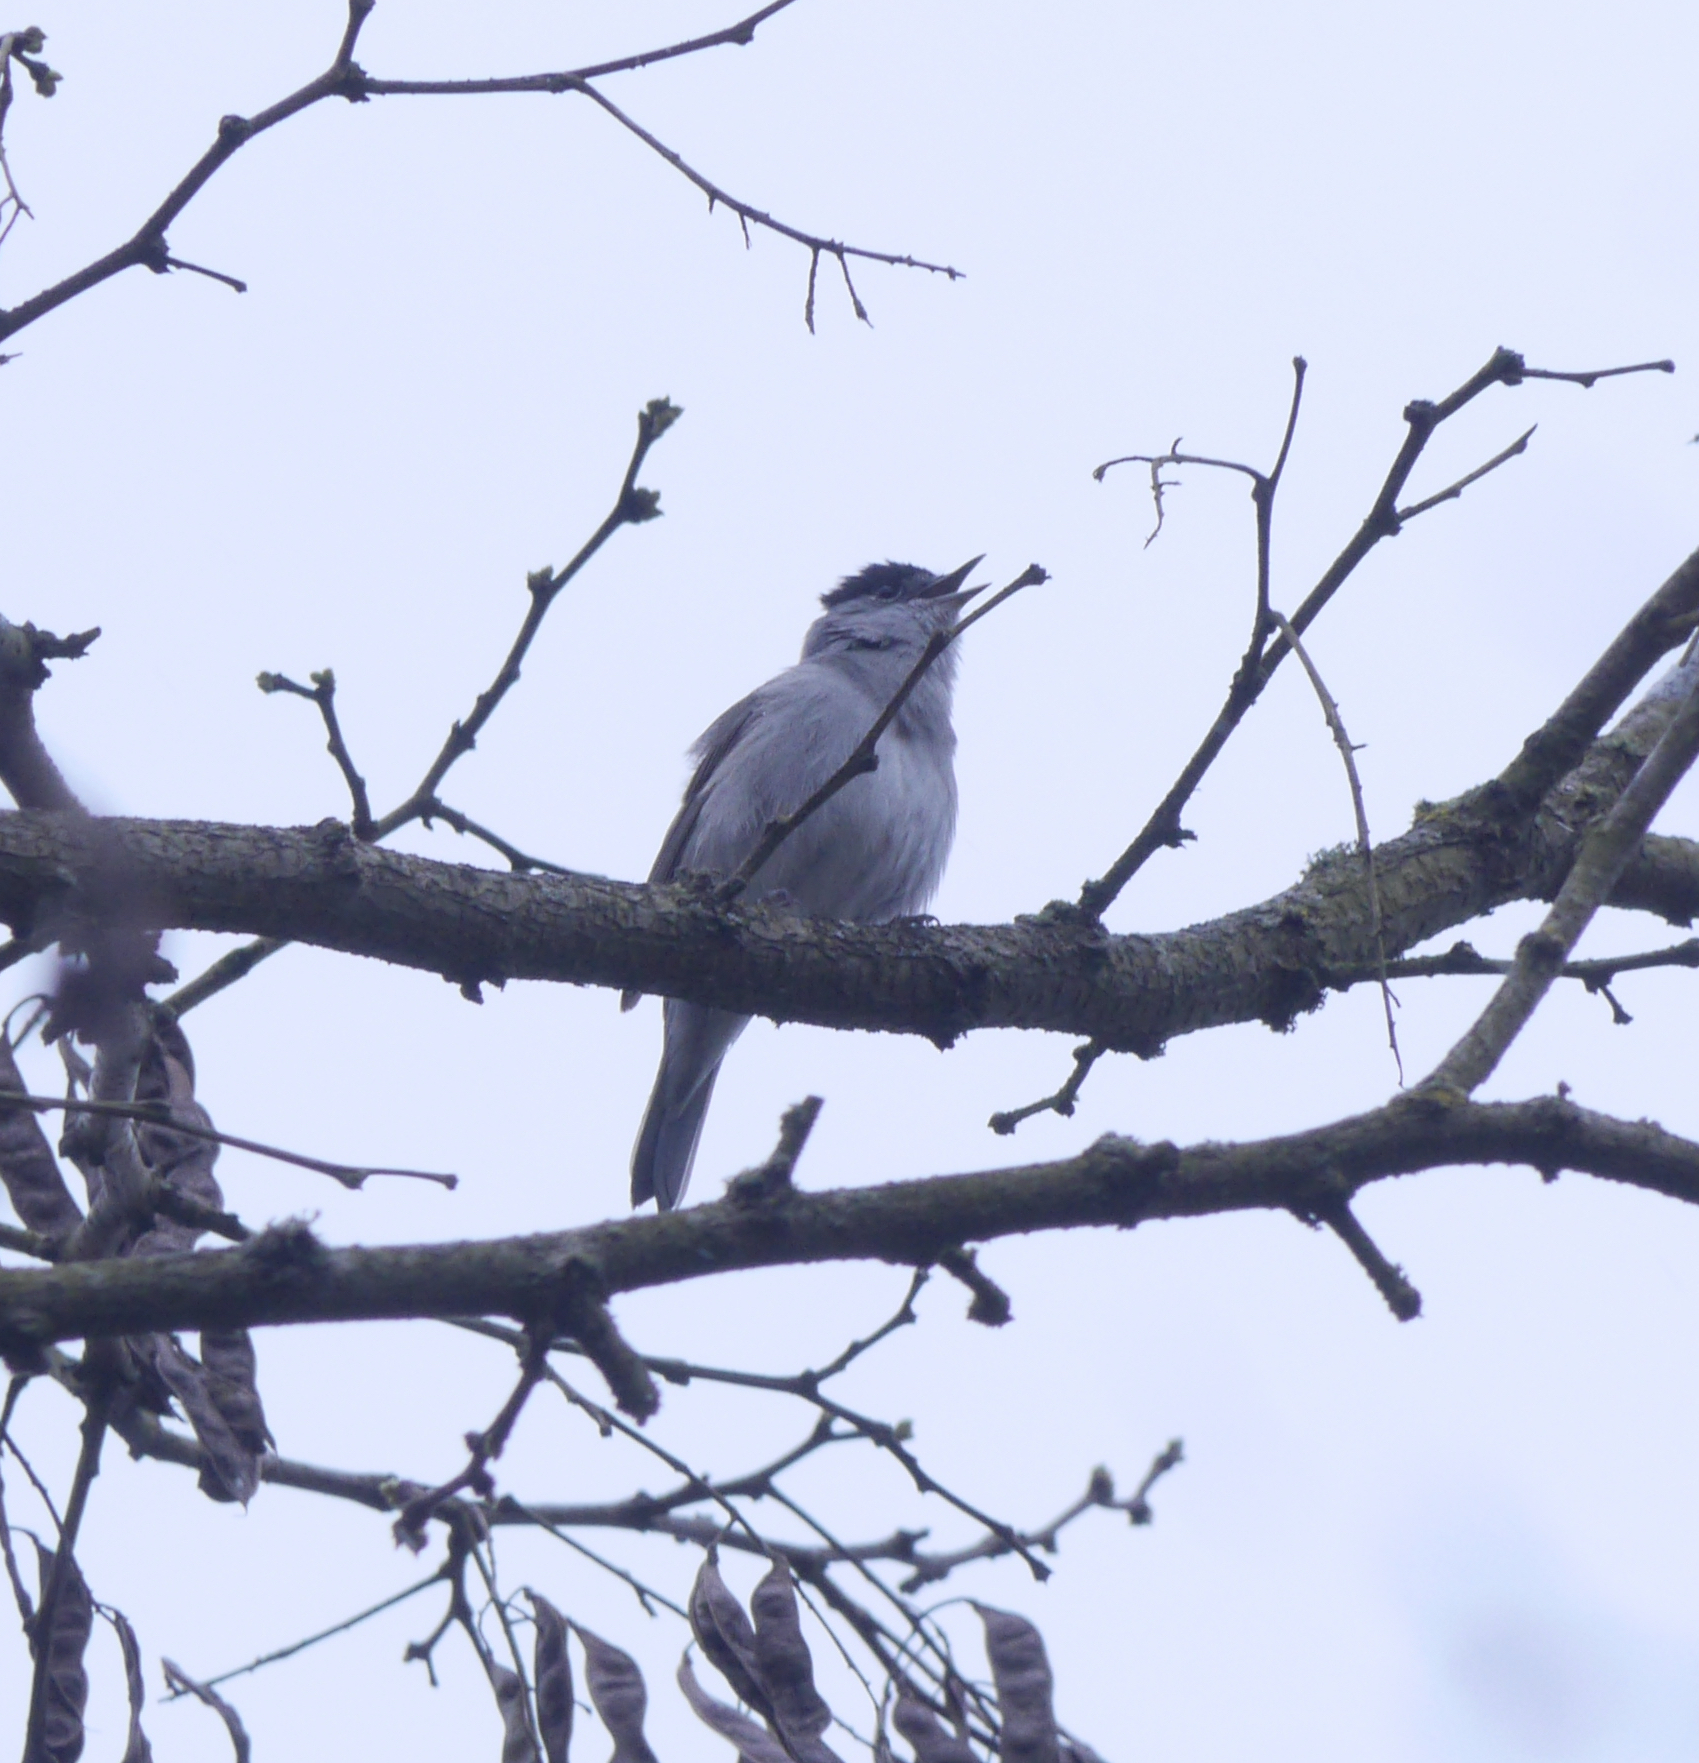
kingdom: Animalia
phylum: Chordata
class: Aves
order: Passeriformes
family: Sylviidae
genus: Sylvia
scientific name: Sylvia atricapilla
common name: Eurasian blackcap
